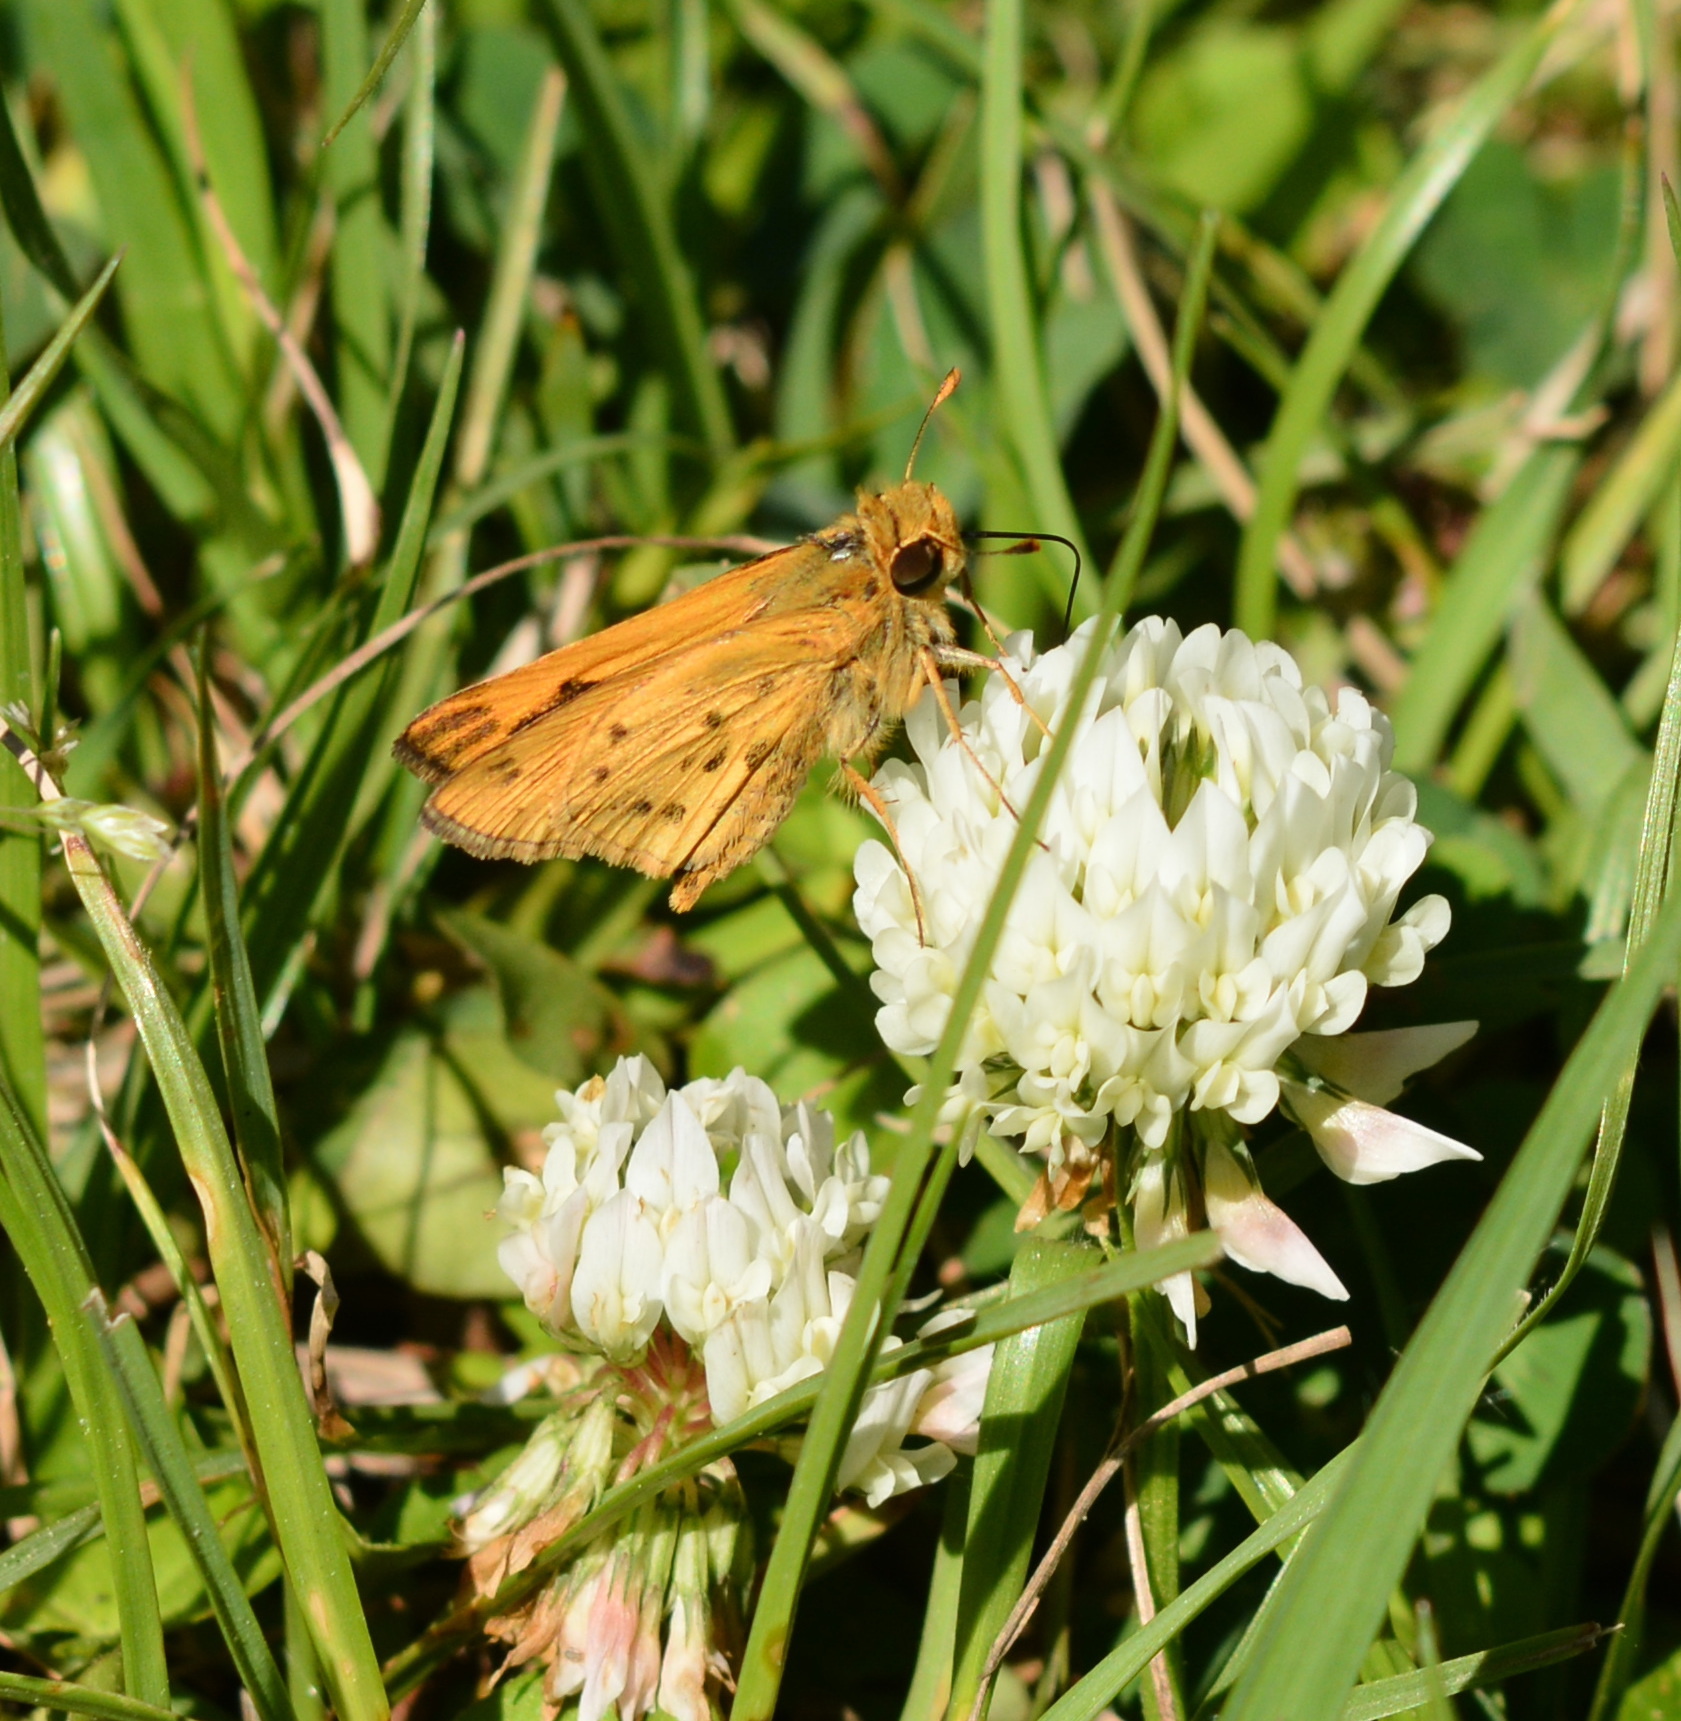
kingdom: Animalia
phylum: Arthropoda
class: Insecta
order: Lepidoptera
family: Hesperiidae
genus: Hylephila
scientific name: Hylephila phyleus
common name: Fiery skipper
